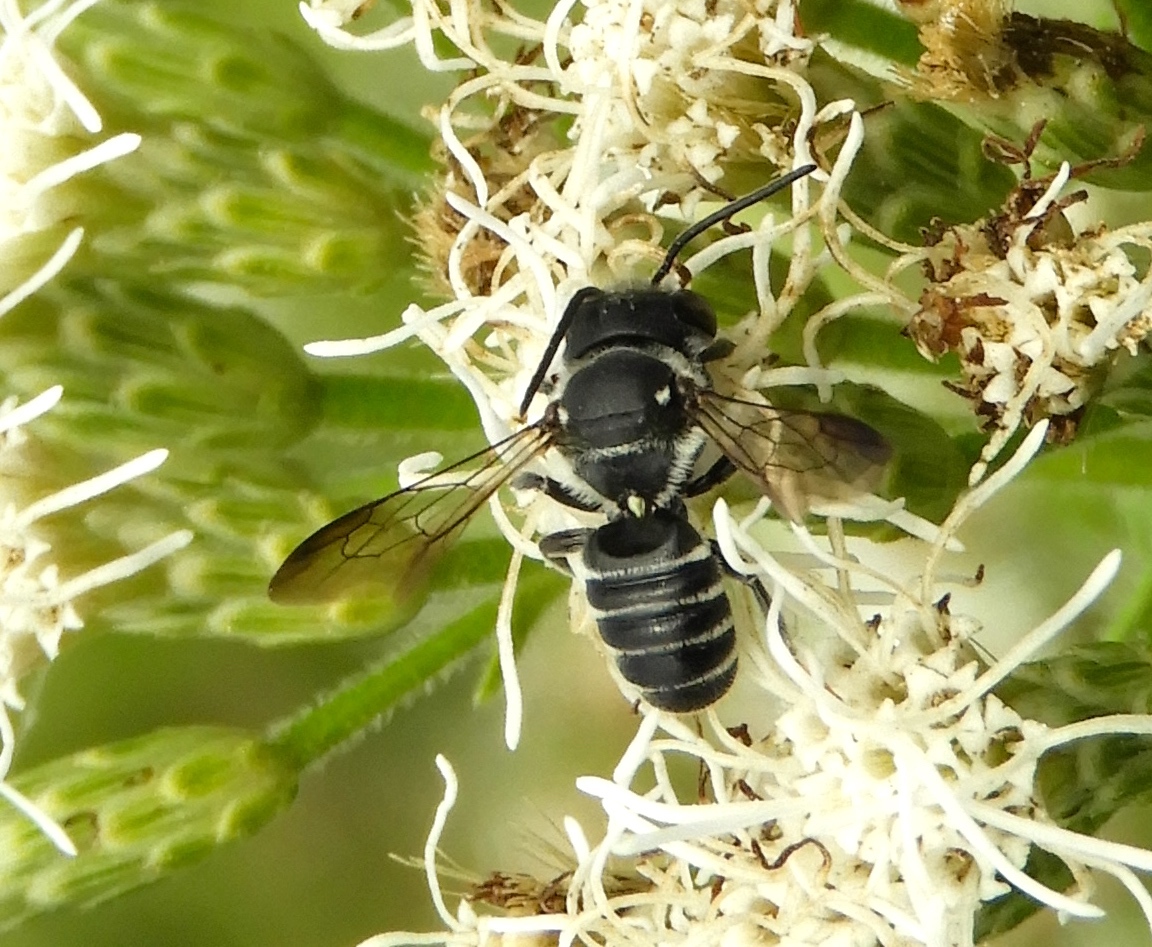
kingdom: Animalia
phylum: Arthropoda
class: Insecta
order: Hymenoptera
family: Megachilidae
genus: Megachile
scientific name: Megachile
